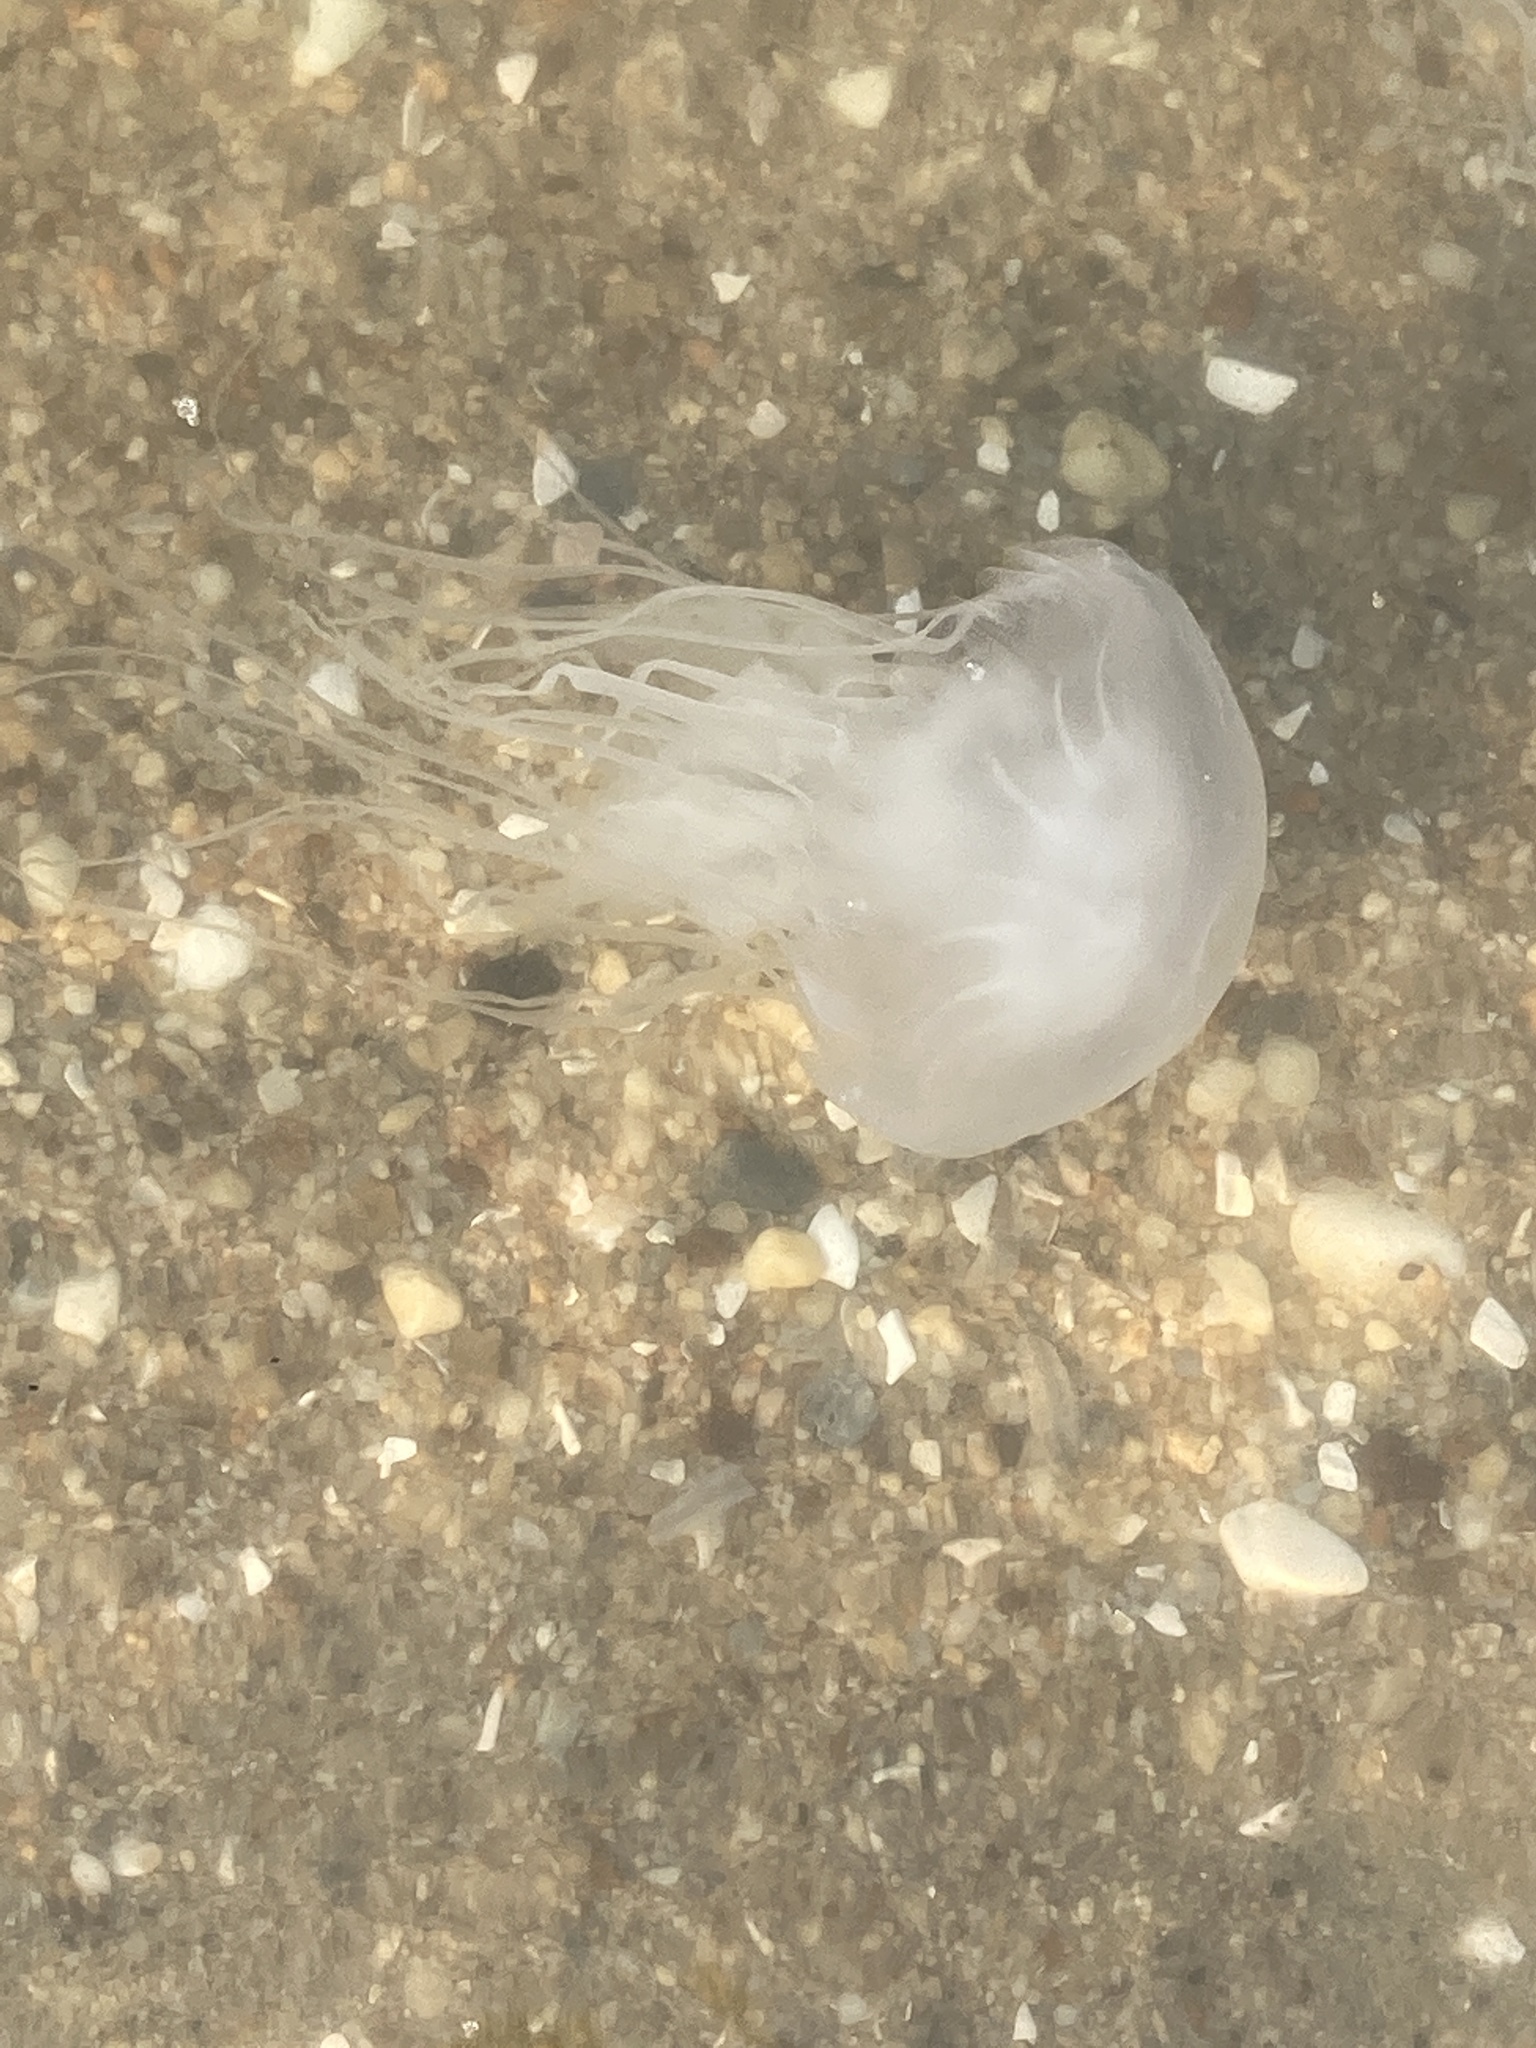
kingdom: Animalia
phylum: Cnidaria
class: Scyphozoa
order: Semaeostomeae
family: Pelagiidae
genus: Chrysaora
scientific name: Chrysaora chesapeakei
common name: Bay nettle
